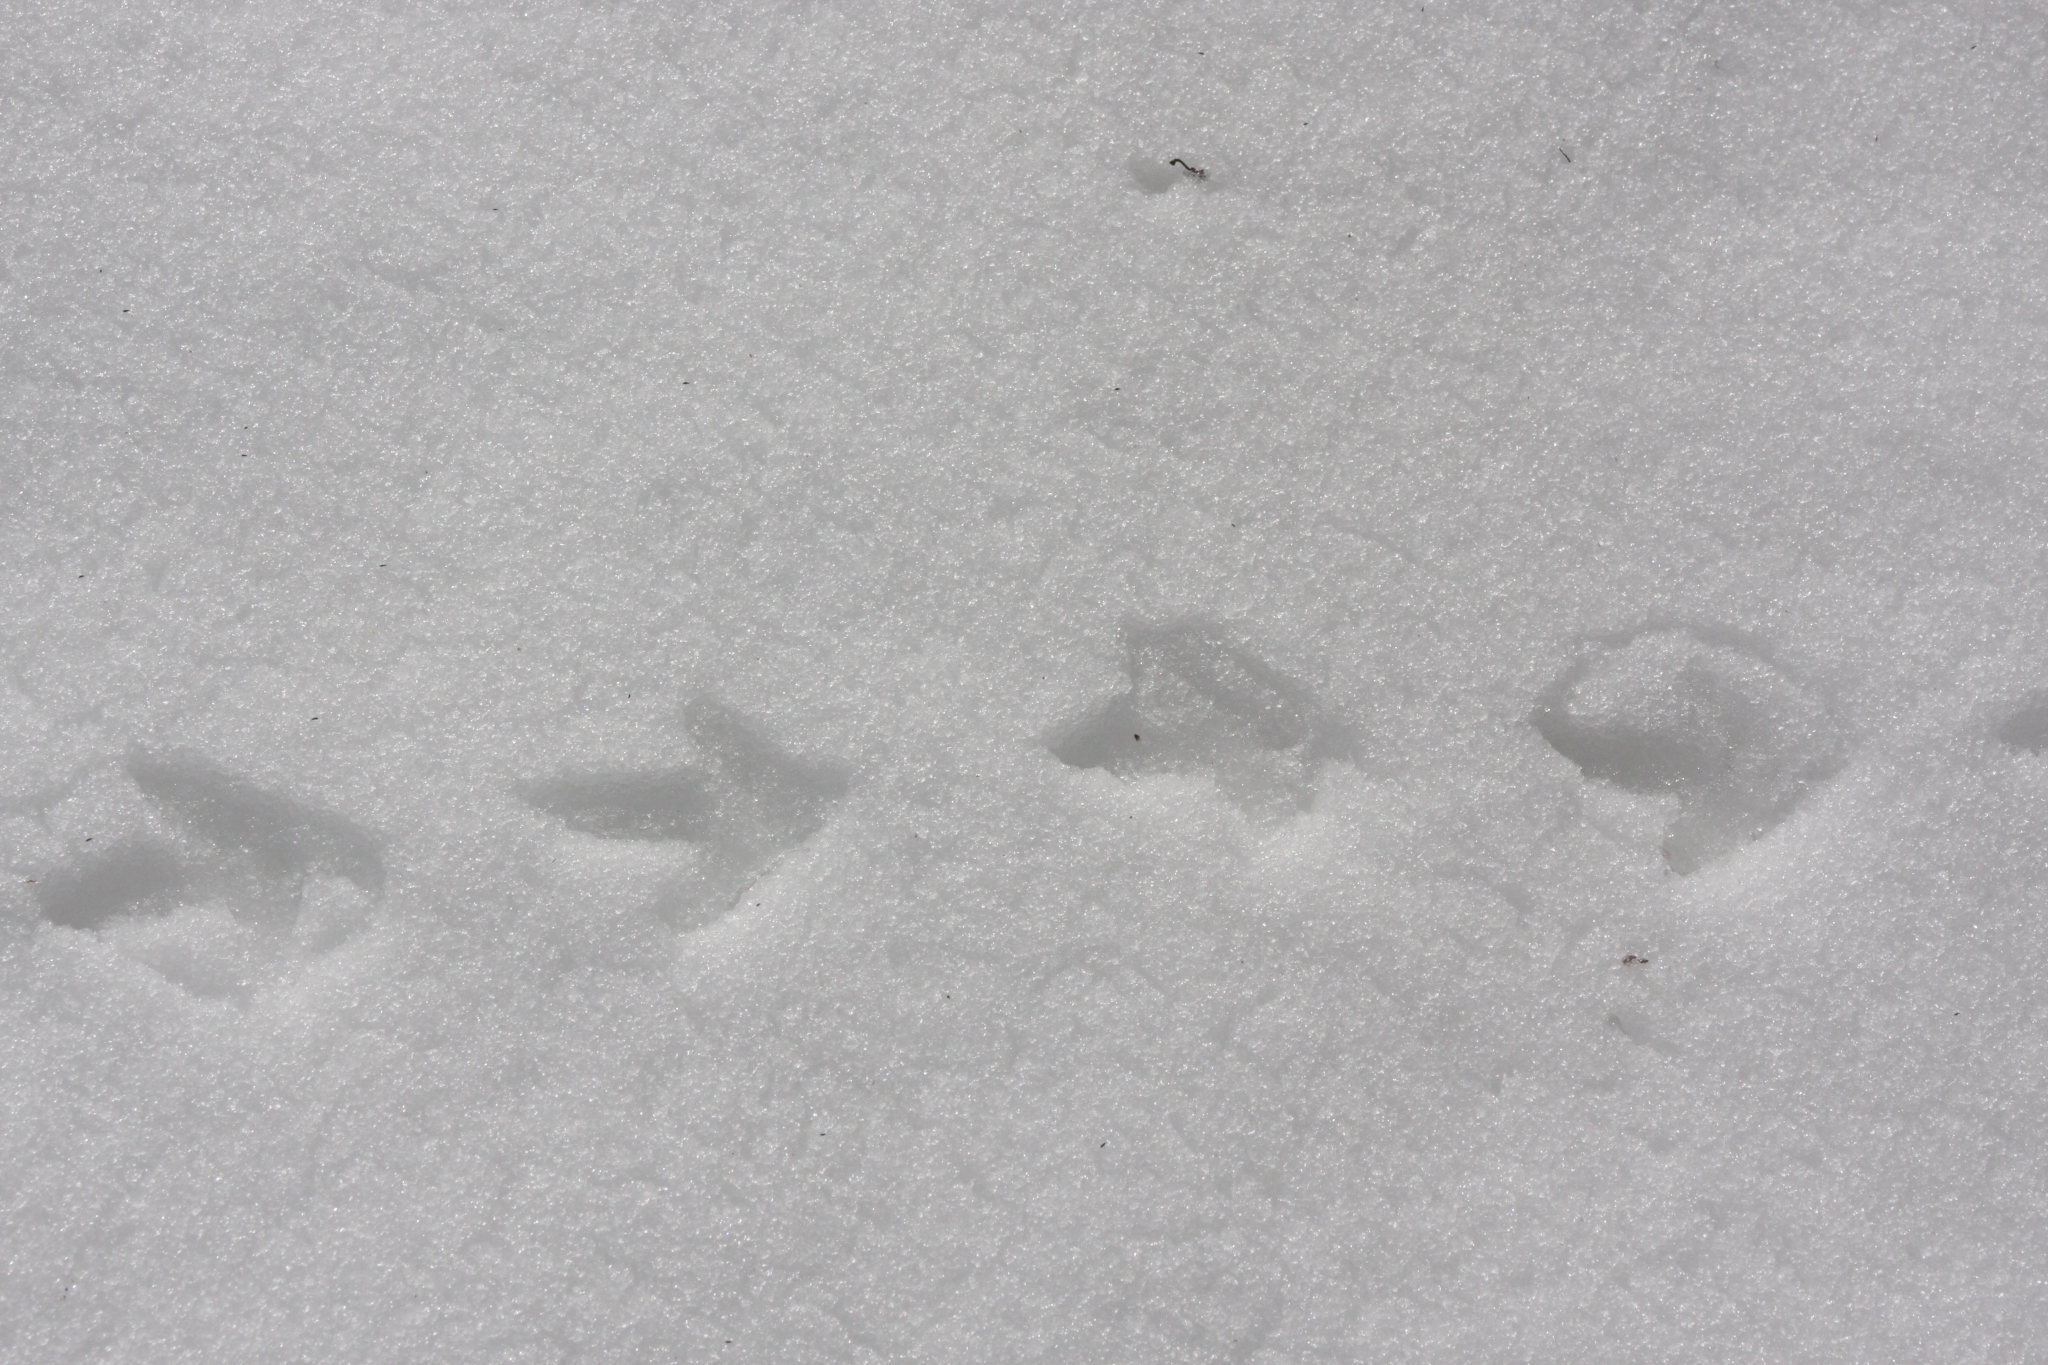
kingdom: Animalia
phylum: Chordata
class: Aves
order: Galliformes
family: Phasianidae
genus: Bonasa
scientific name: Bonasa umbellus
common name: Ruffed grouse
